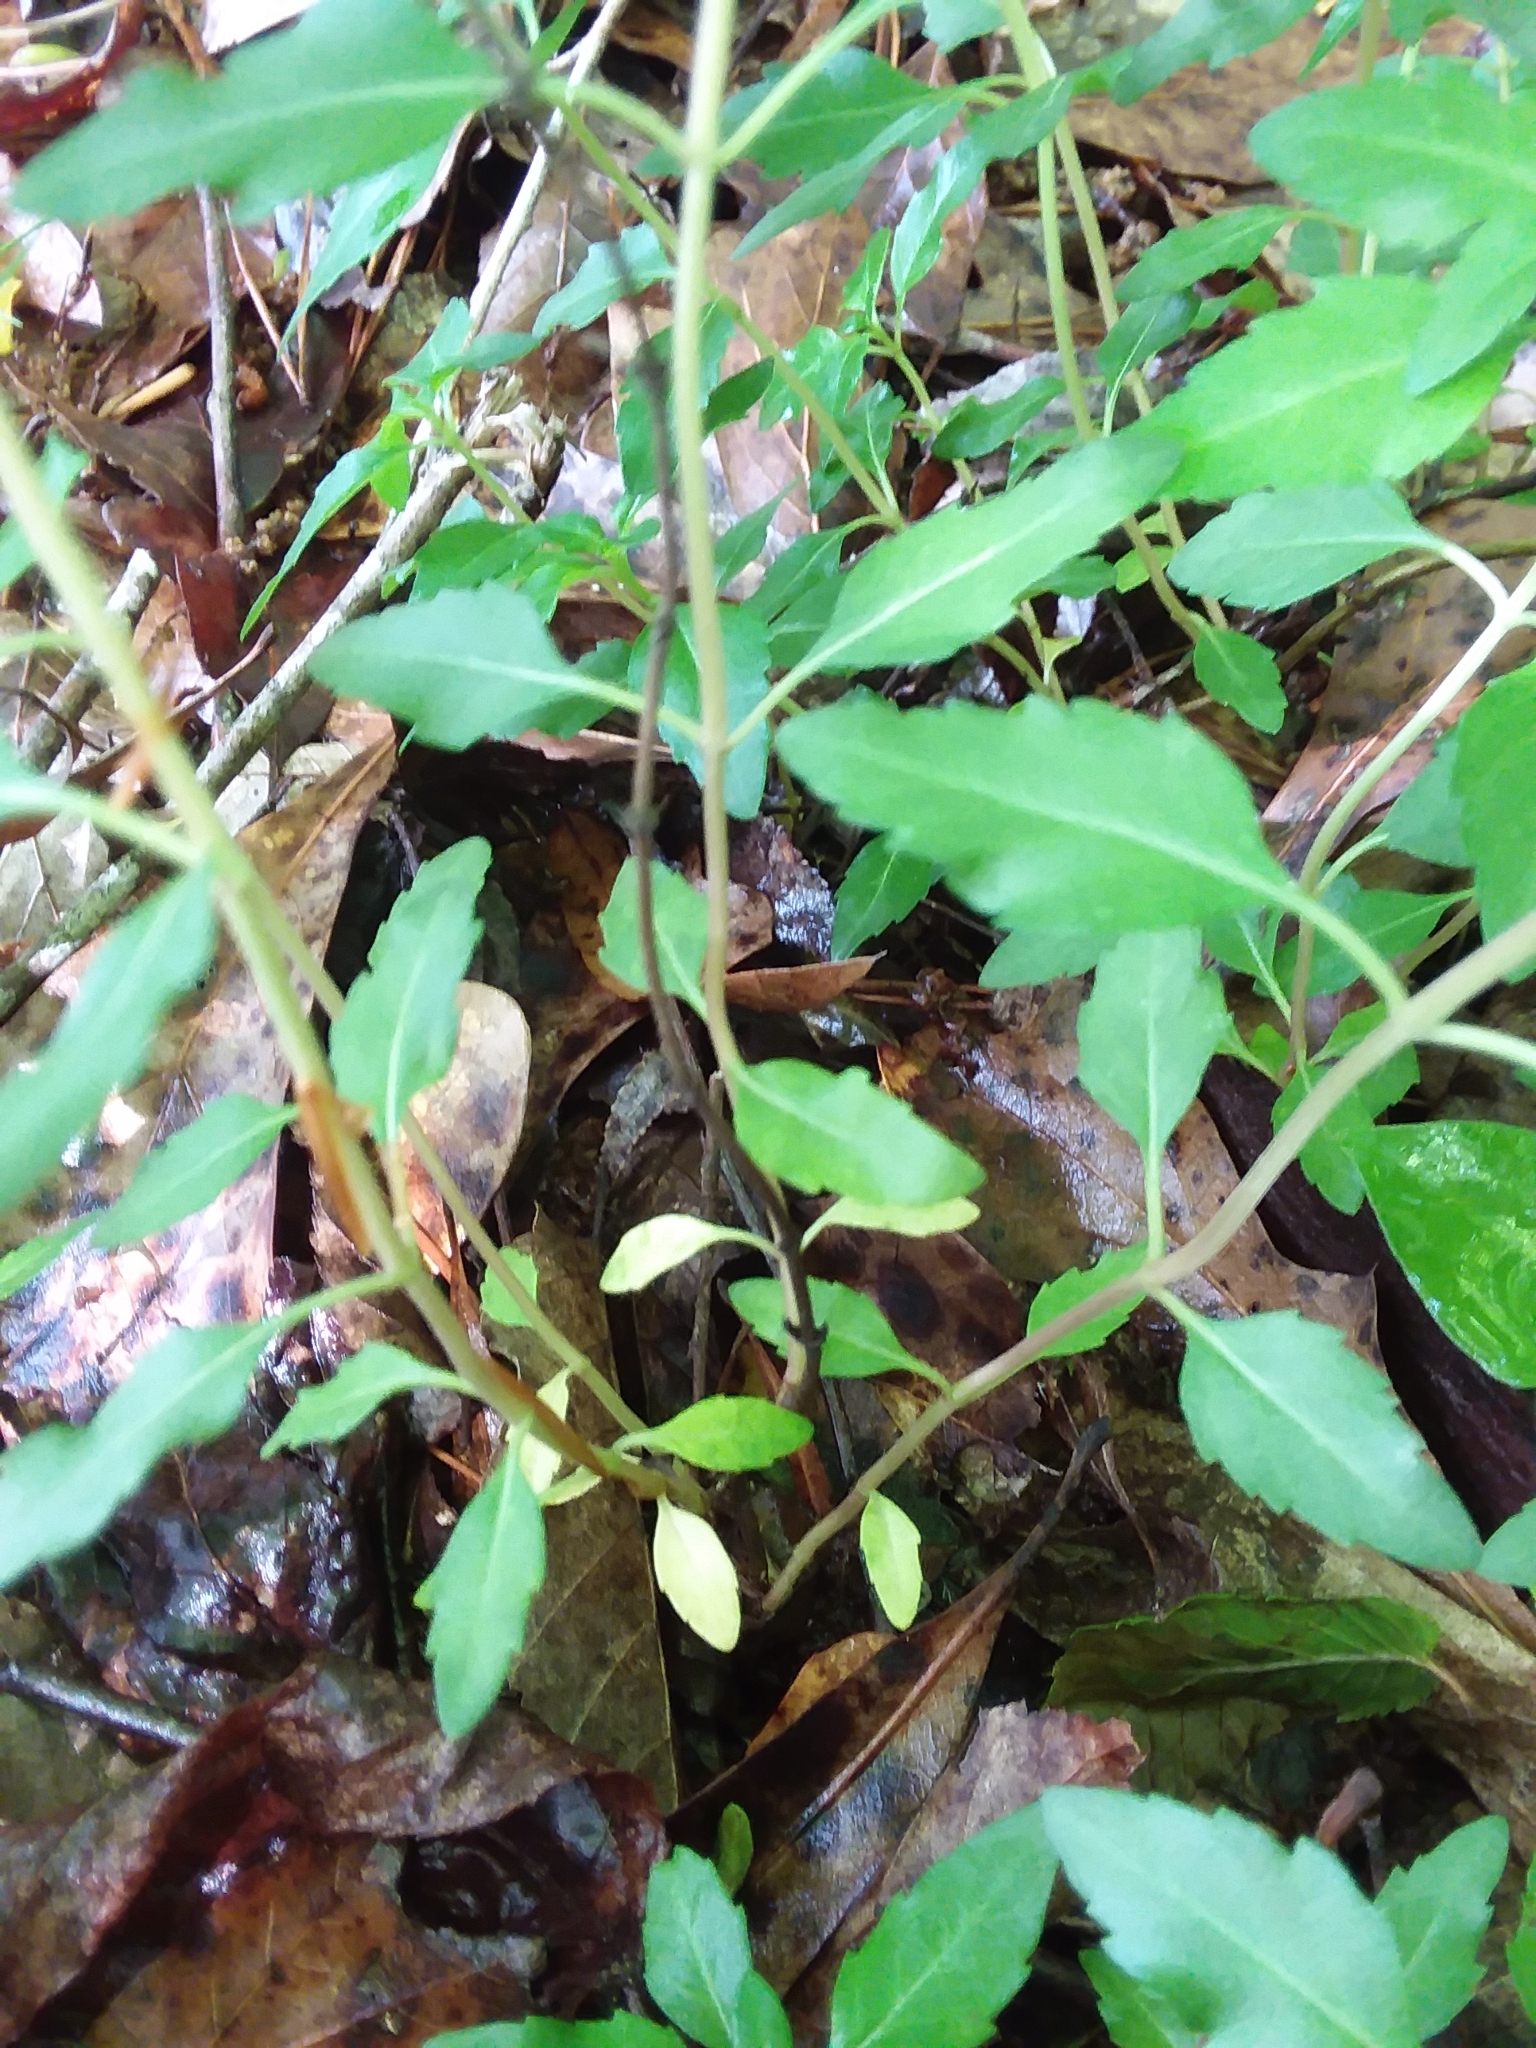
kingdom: Plantae
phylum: Tracheophyta
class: Magnoliopsida
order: Lamiales
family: Lamiaceae
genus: Clinopodium
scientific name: Clinopodium carolinianum
